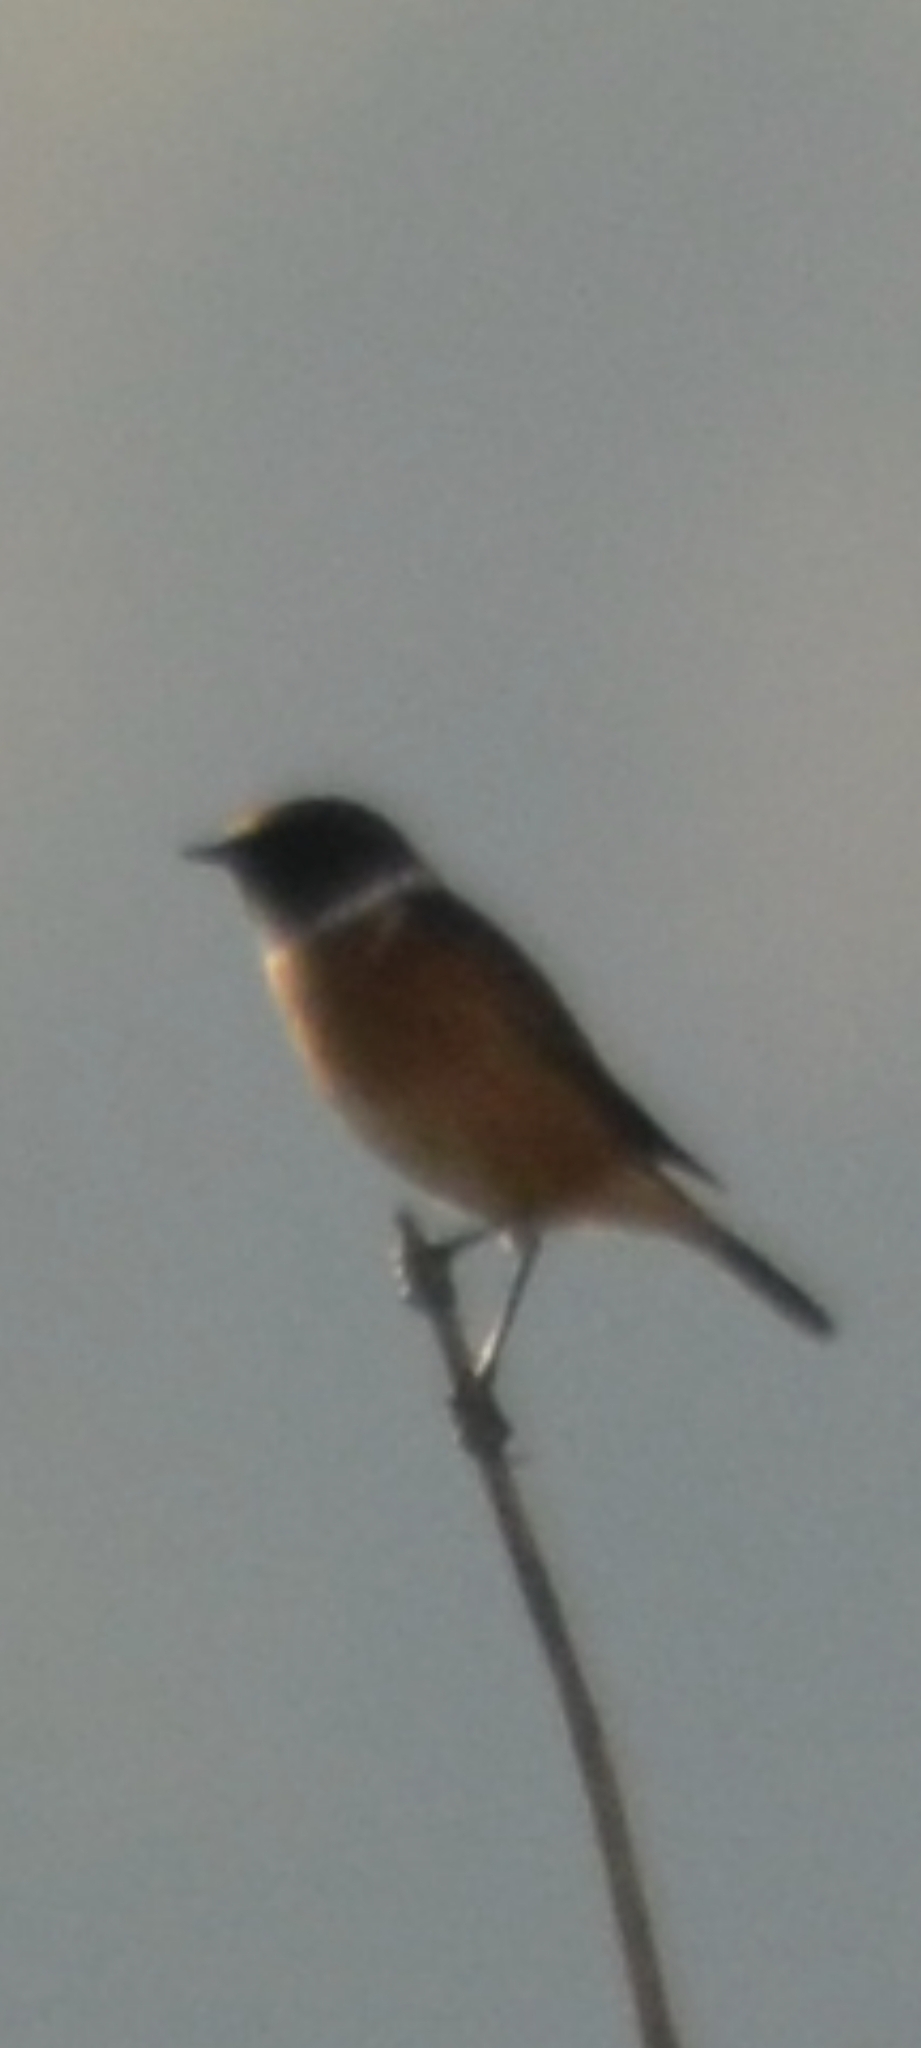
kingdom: Animalia
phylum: Chordata
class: Aves
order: Passeriformes
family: Muscicapidae
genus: Saxicola
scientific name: Saxicola rubicola
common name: European stonechat
